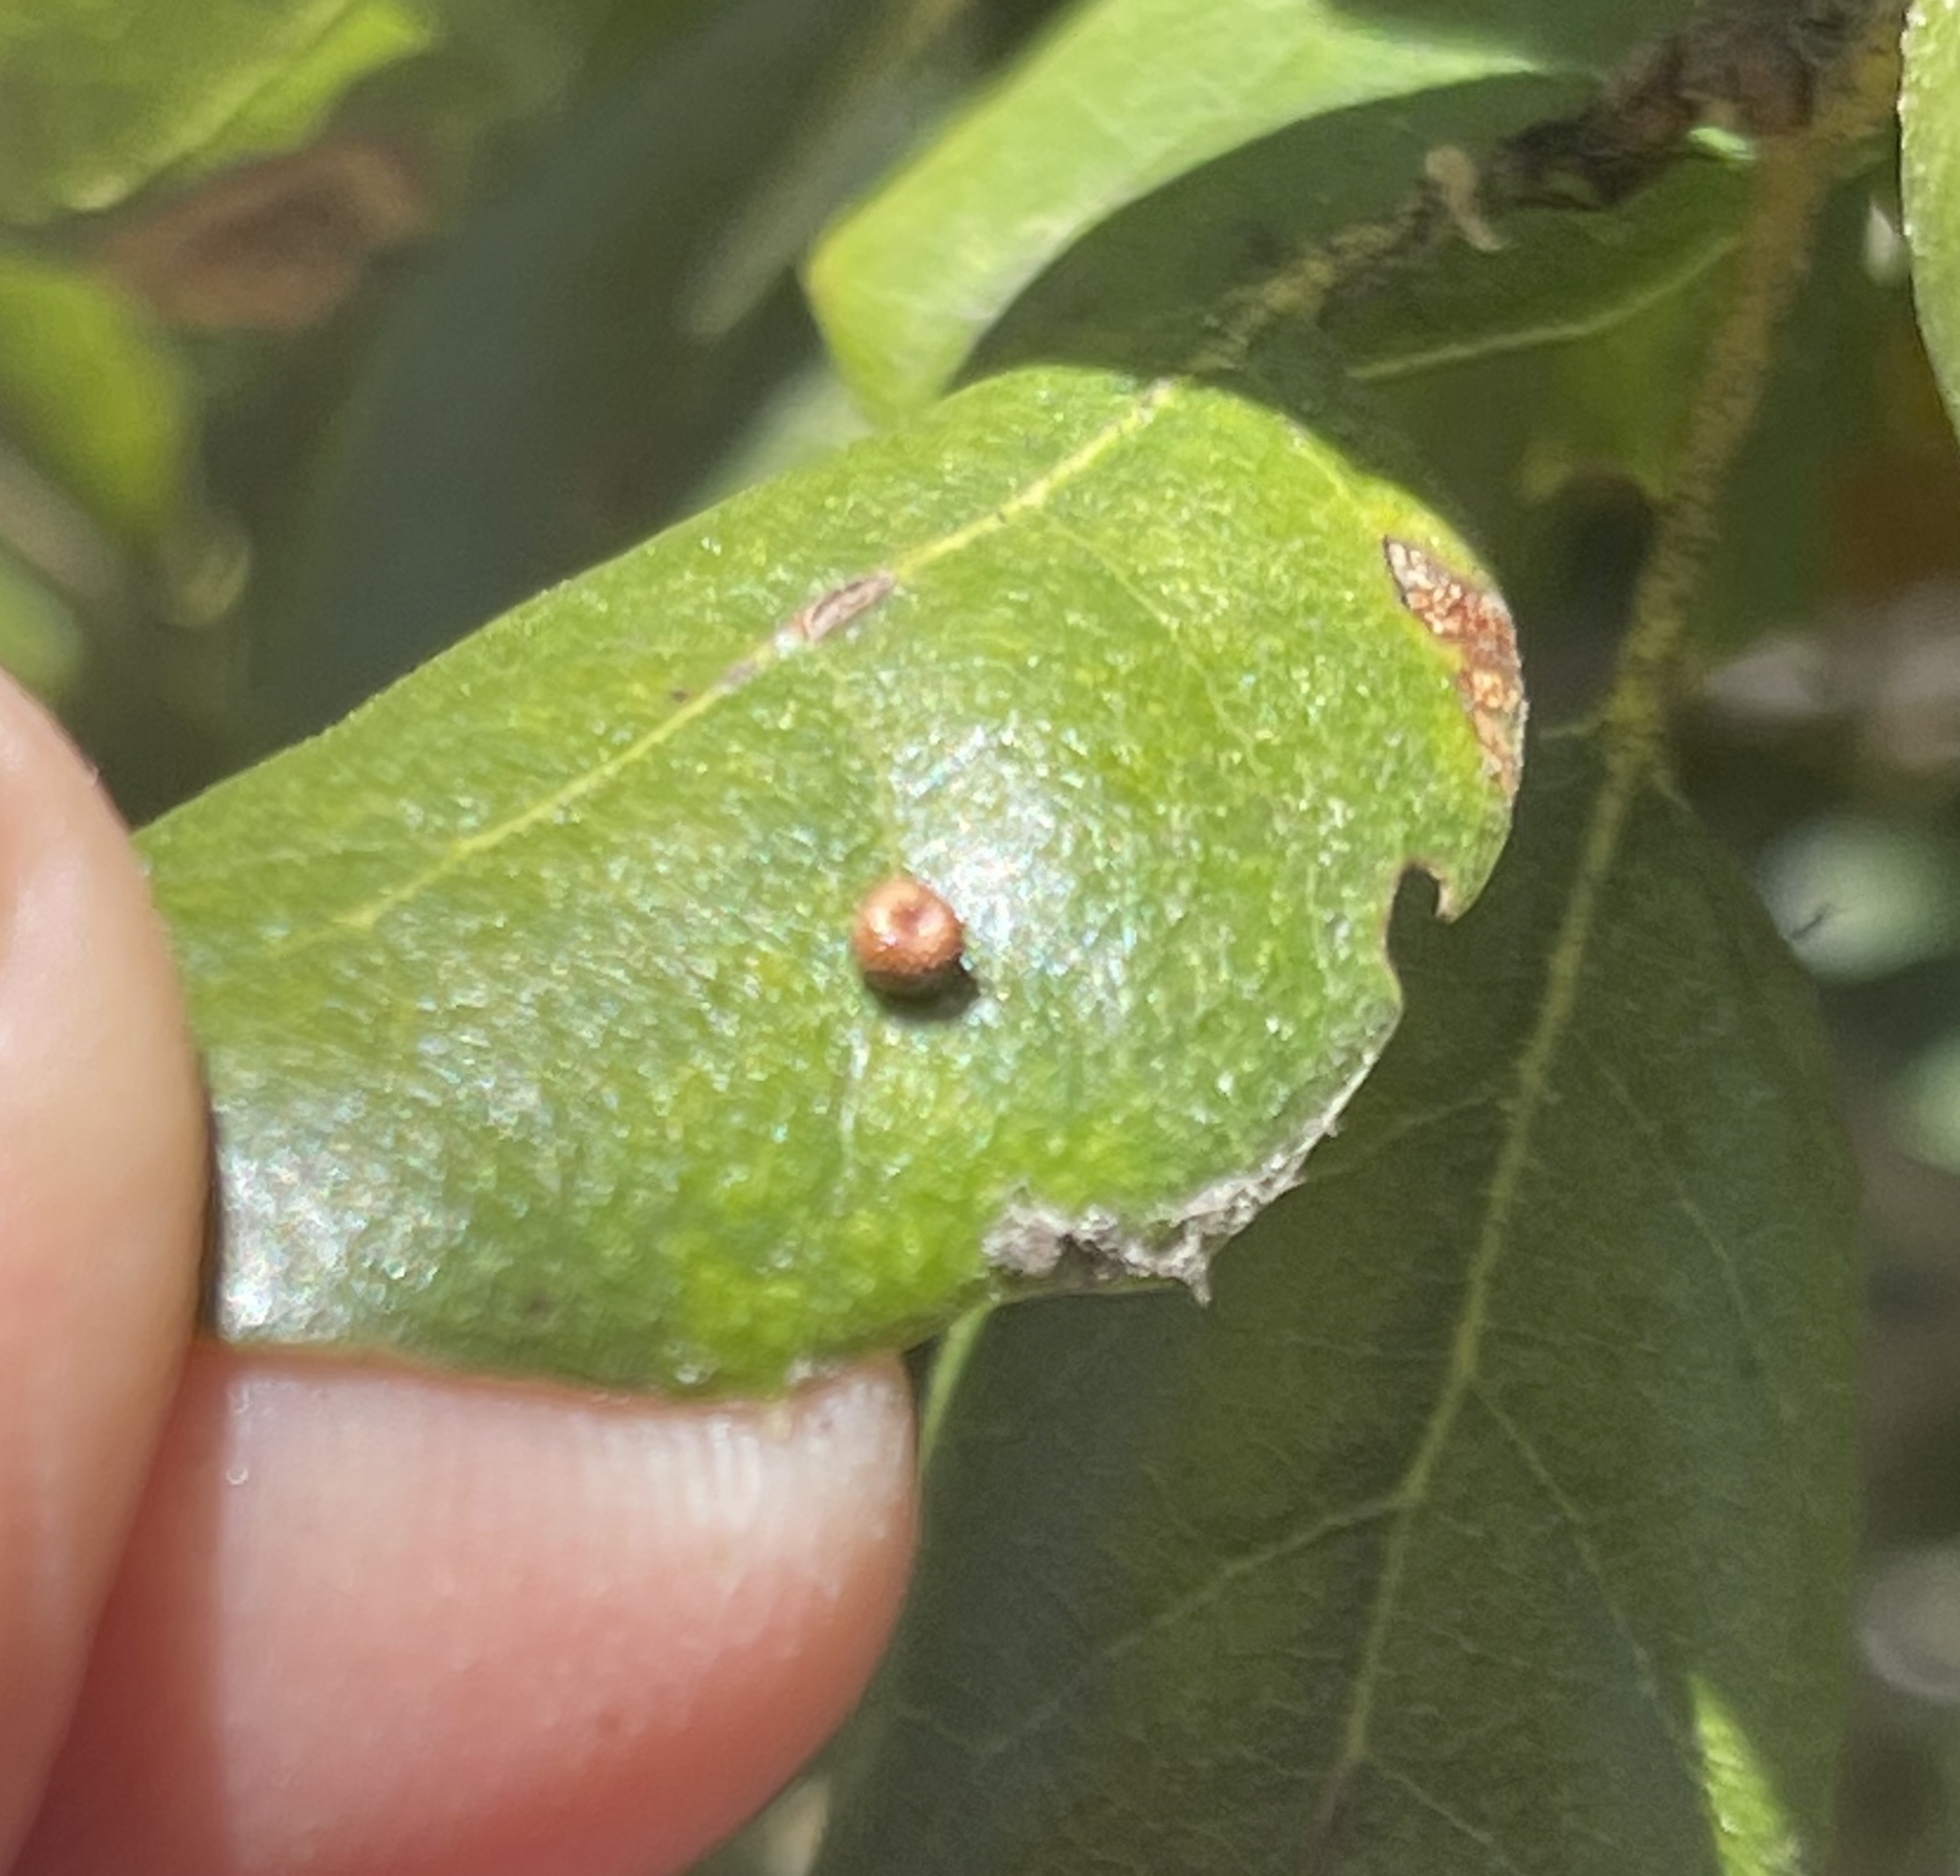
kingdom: Animalia
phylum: Arthropoda
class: Insecta
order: Hymenoptera
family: Cynipidae
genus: Dryocosmus
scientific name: Dryocosmus
